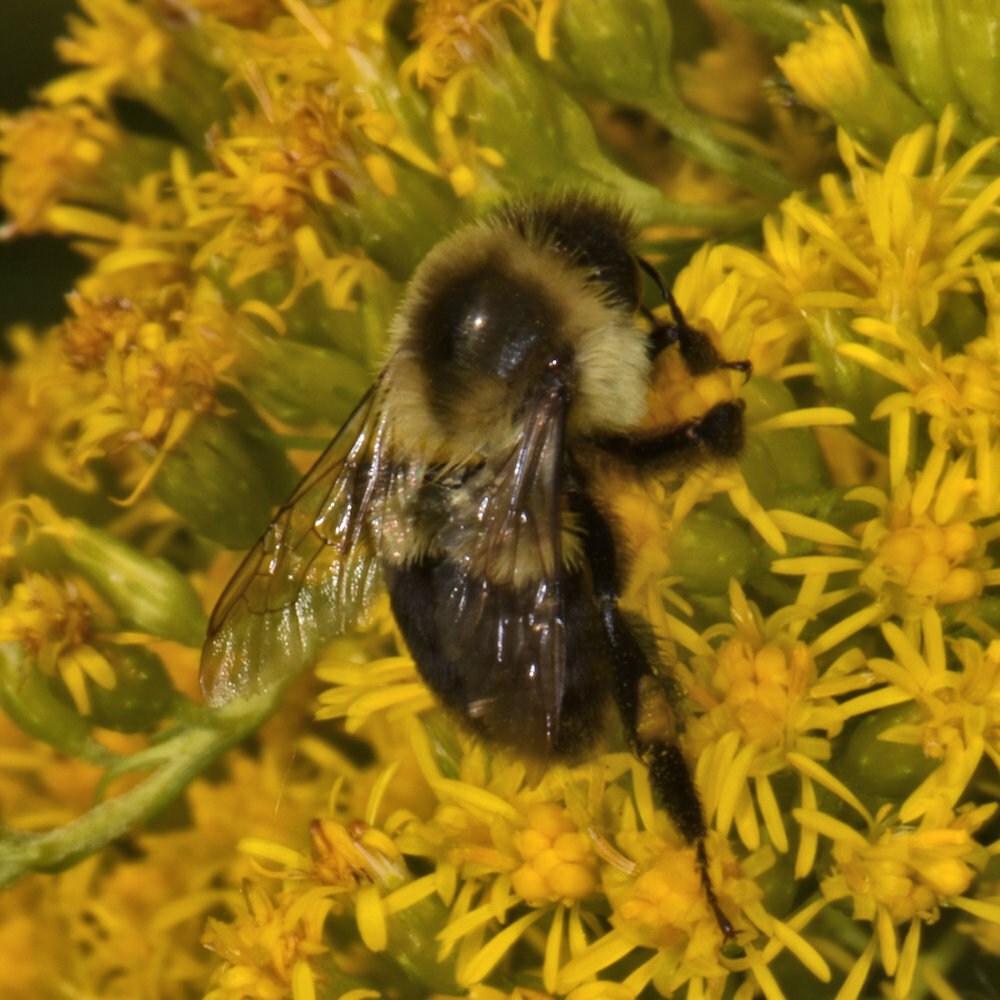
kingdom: Animalia
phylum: Arthropoda
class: Insecta
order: Hymenoptera
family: Apidae
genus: Bombus
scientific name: Bombus impatiens
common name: Common eastern bumble bee
